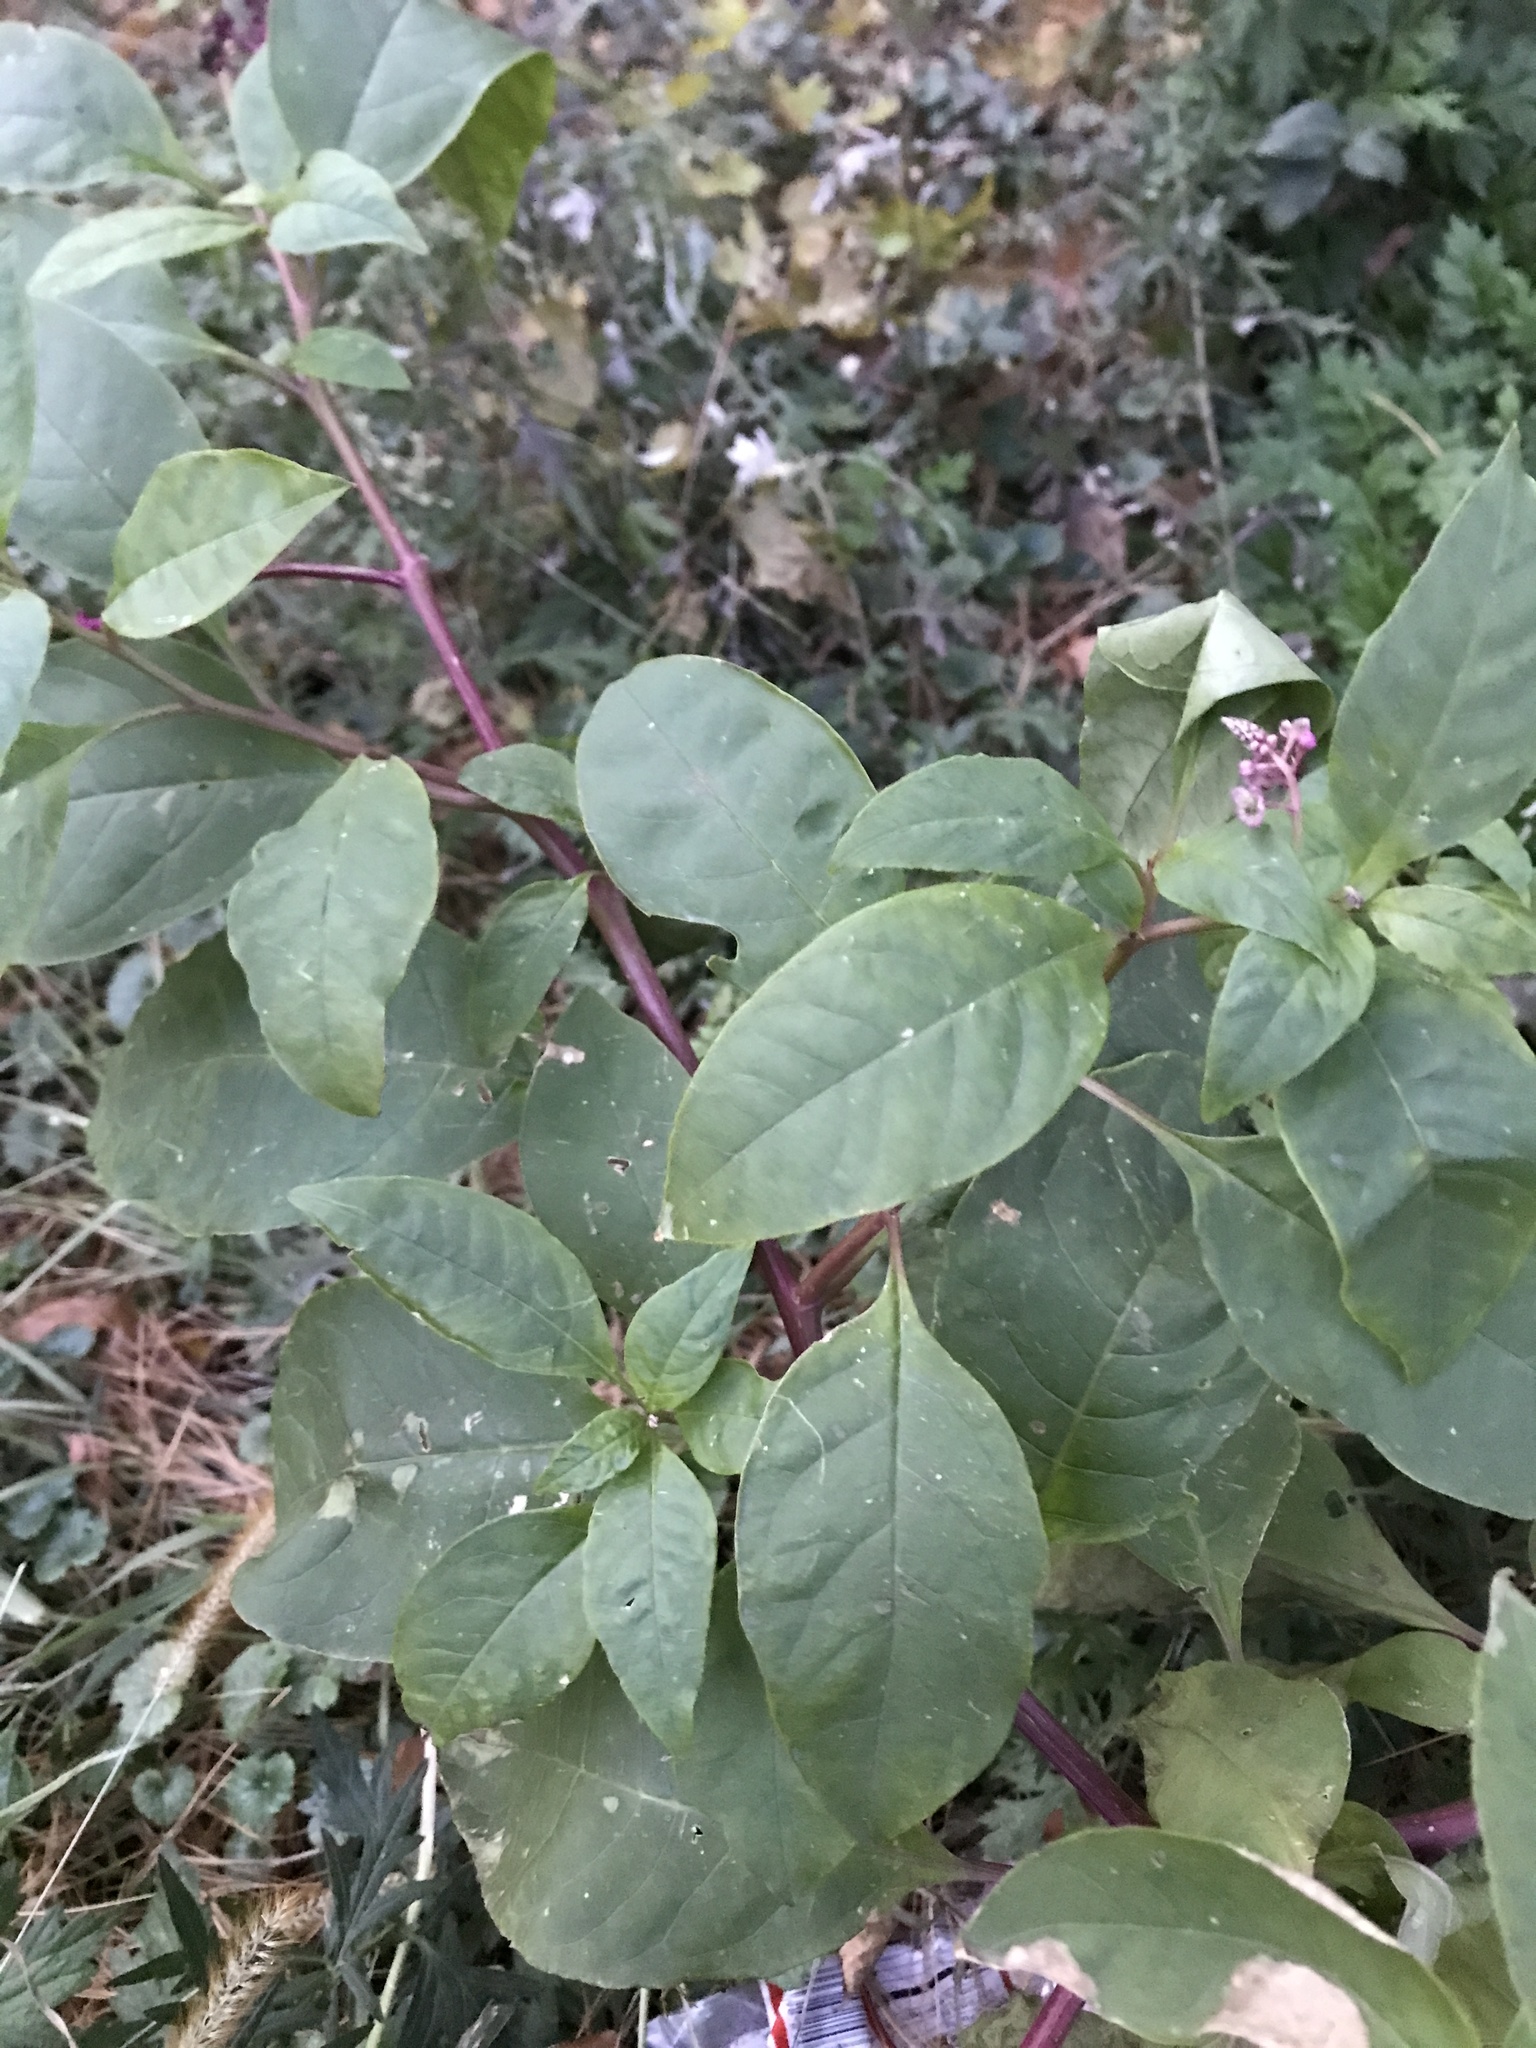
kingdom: Plantae
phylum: Tracheophyta
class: Magnoliopsida
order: Caryophyllales
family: Phytolaccaceae
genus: Phytolacca
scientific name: Phytolacca americana
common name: American pokeweed
